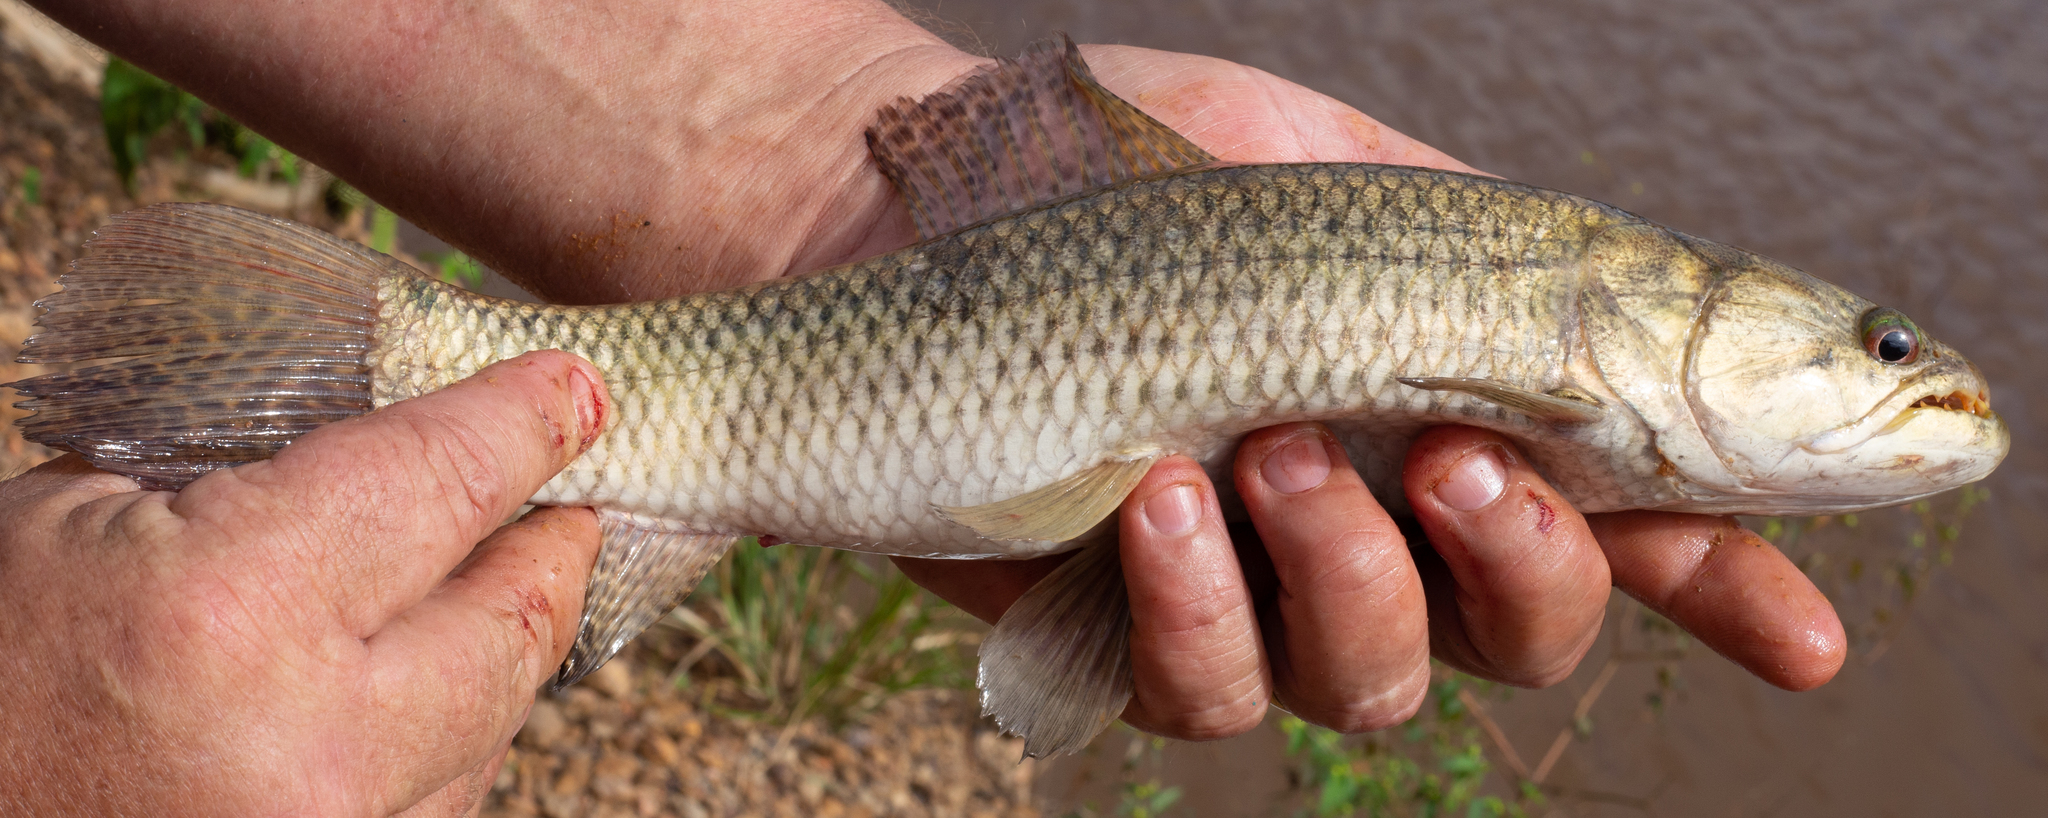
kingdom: Animalia
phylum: Chordata
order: Characiformes
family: Erythrinidae
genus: Hoplias
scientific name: Hoplias malabaricus
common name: Trahira
